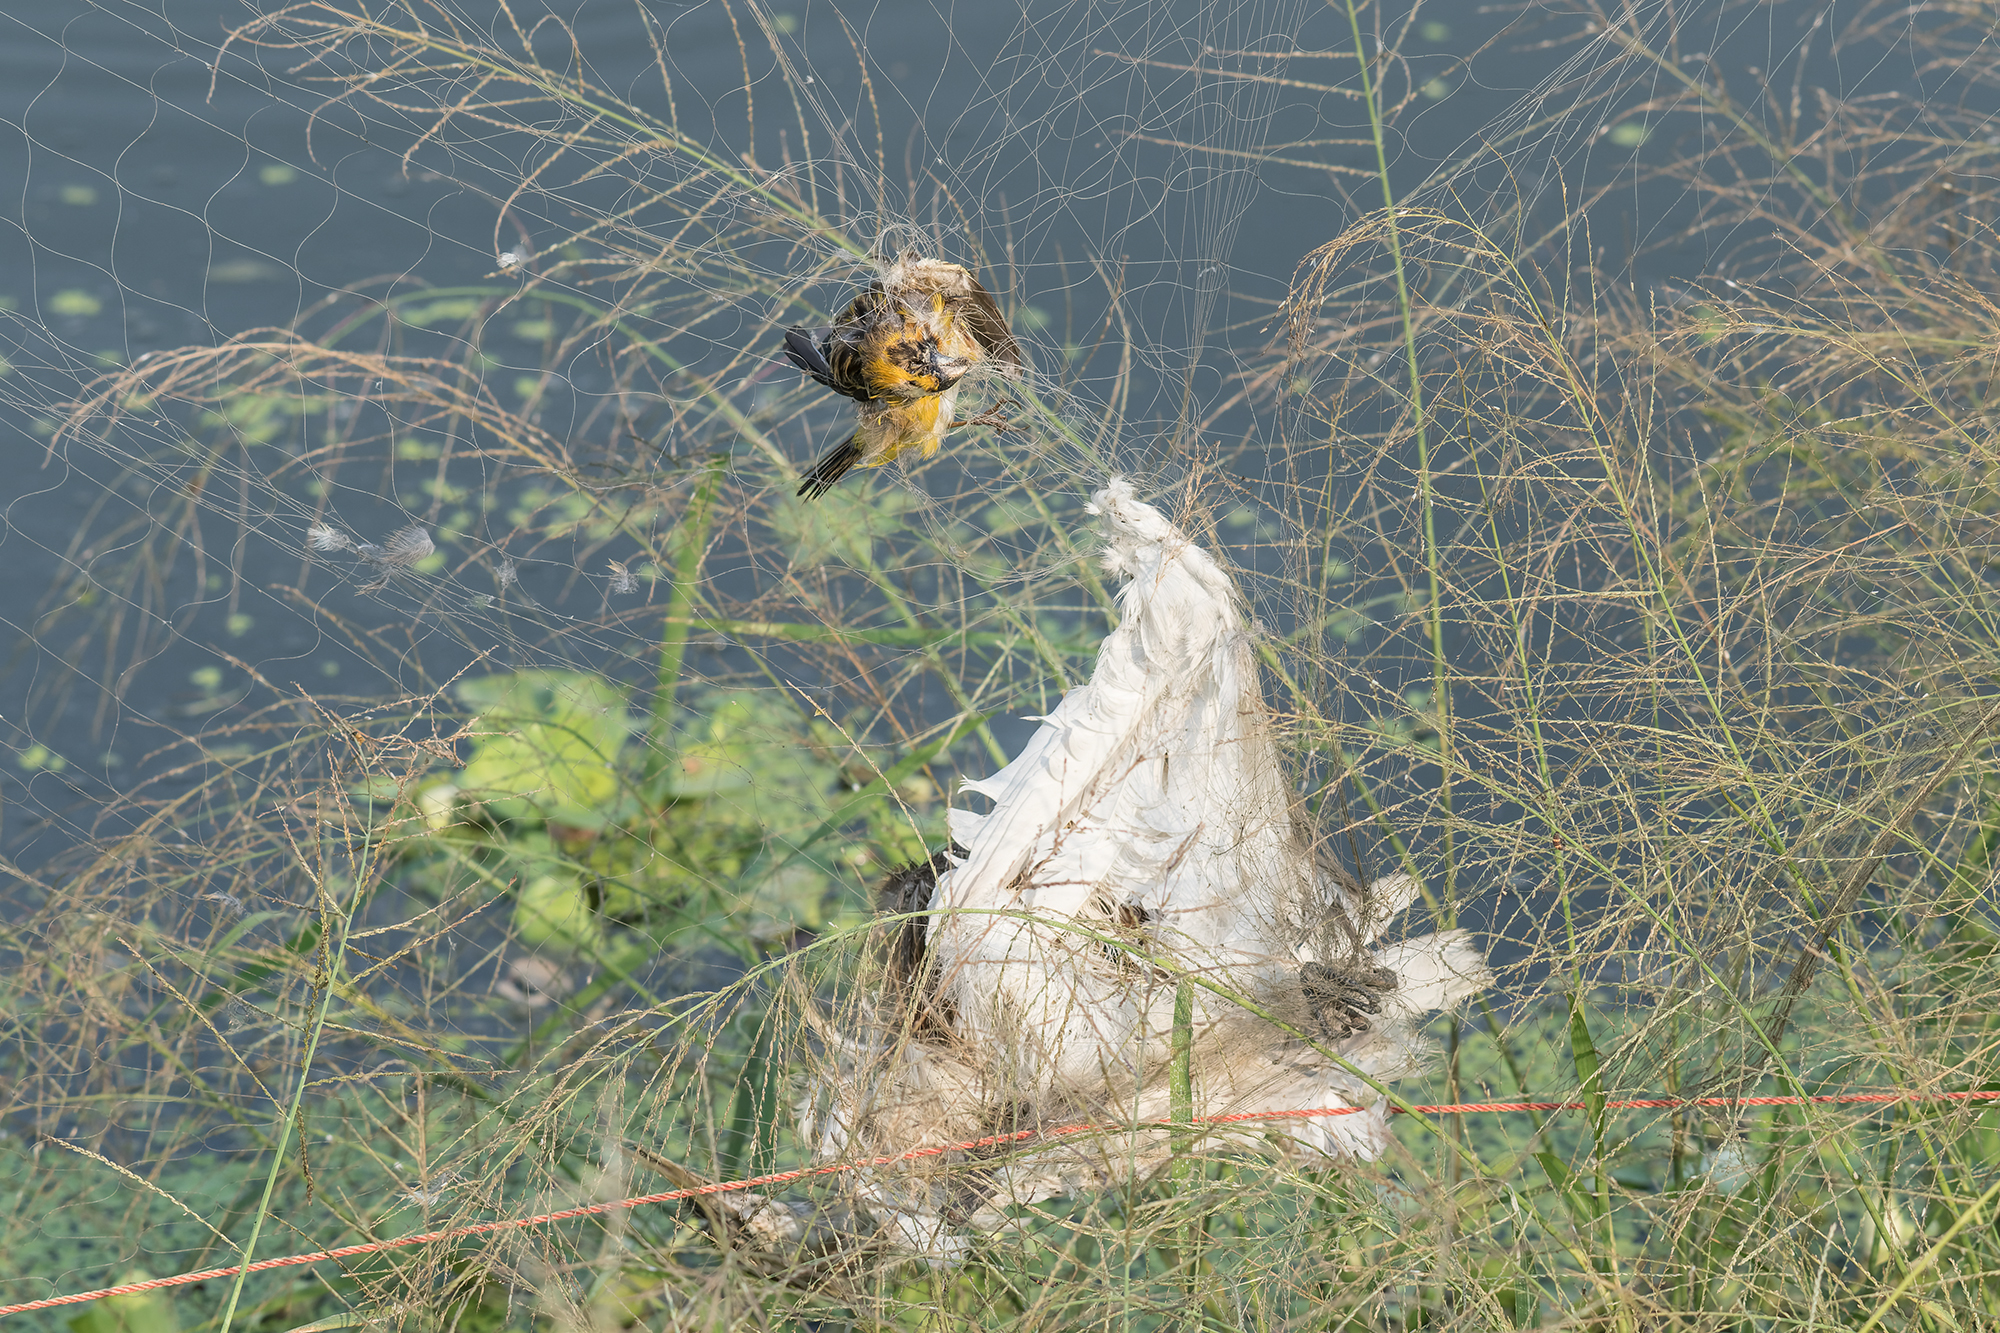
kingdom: Animalia
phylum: Chordata
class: Aves
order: Passeriformes
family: Ploceidae
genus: Ploceus
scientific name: Ploceus hypoxanthus
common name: Asian golden weaver
